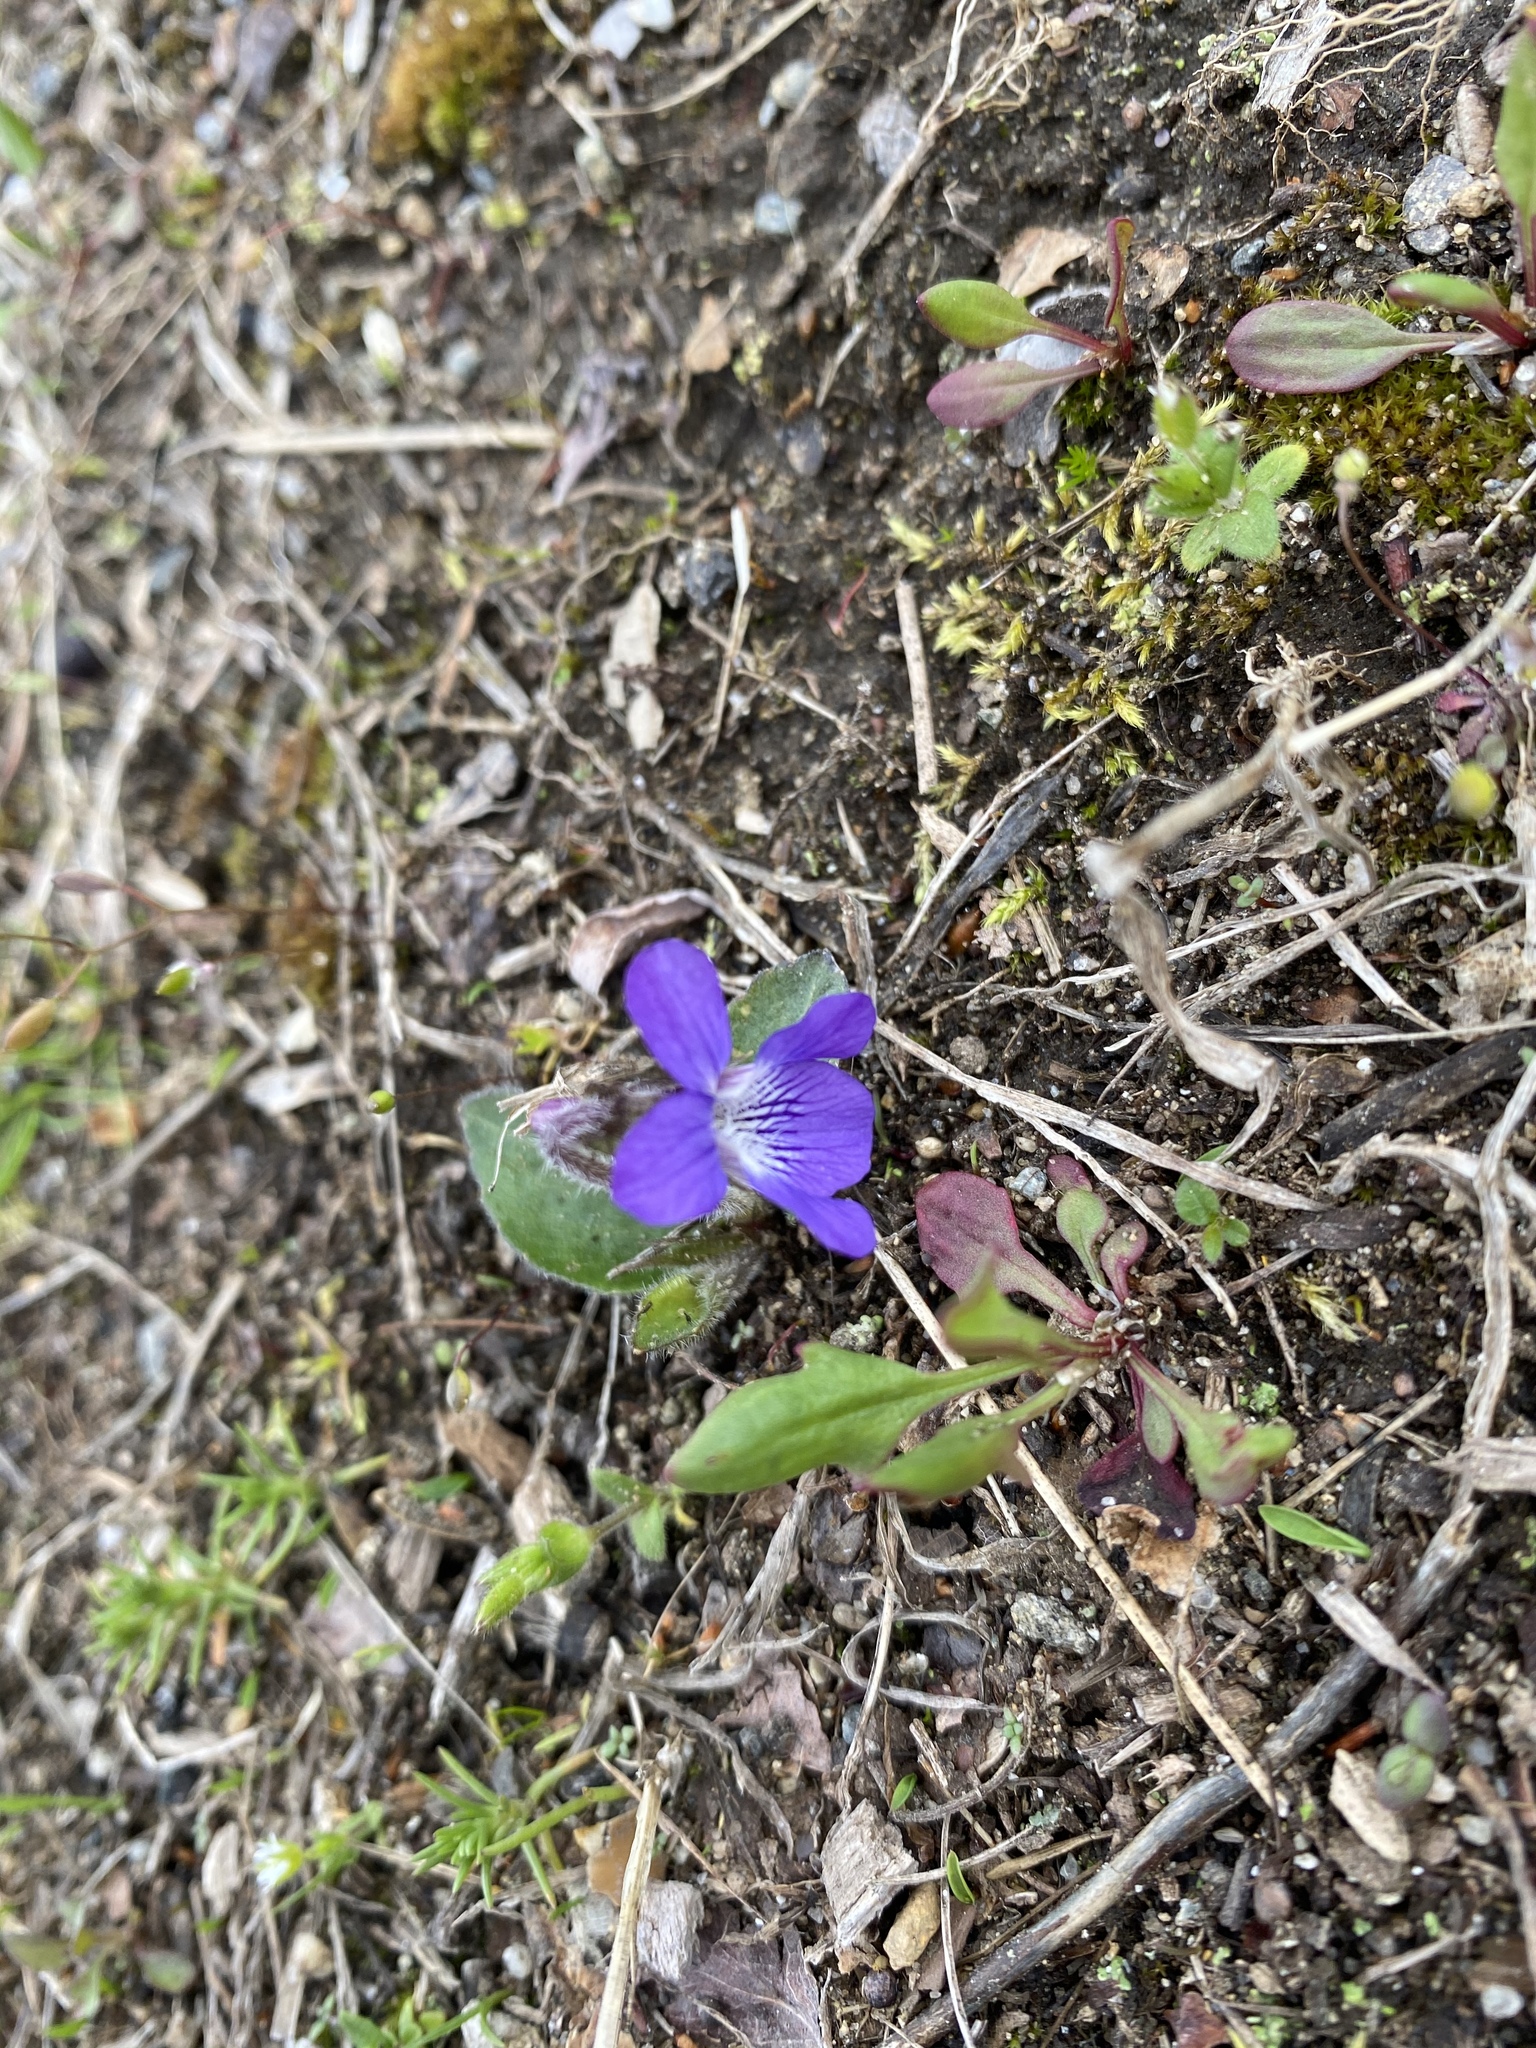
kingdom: Plantae
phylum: Tracheophyta
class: Magnoliopsida
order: Malpighiales
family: Violaceae
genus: Viola
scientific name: Viola sagittata
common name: Arrowhead violet
